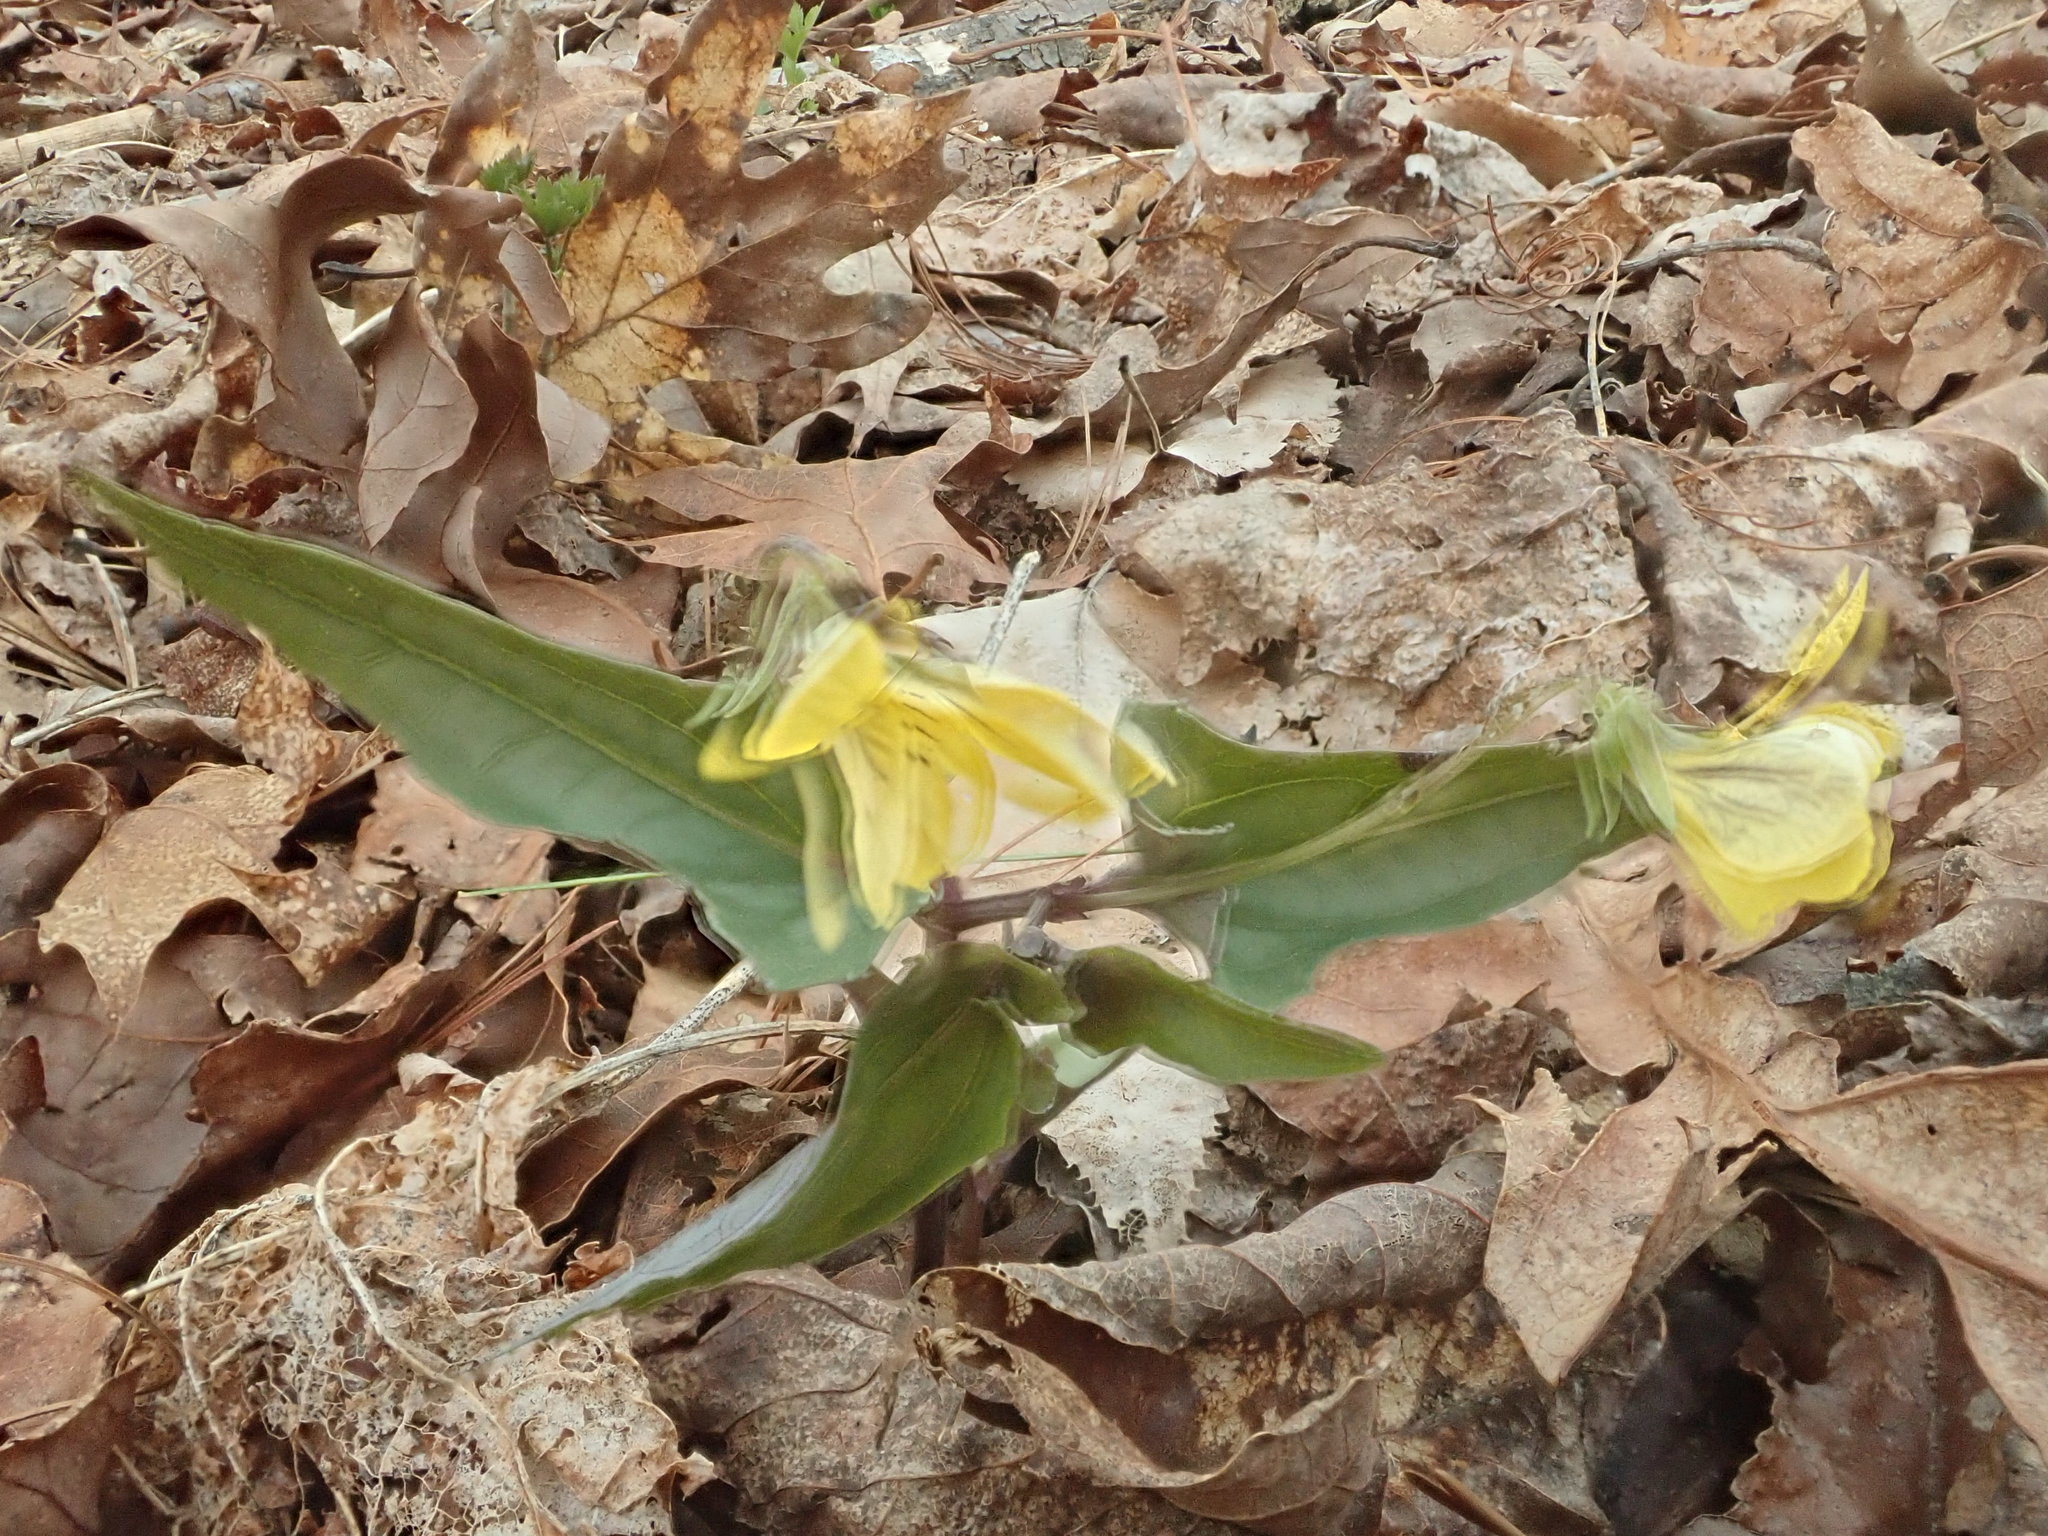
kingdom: Plantae
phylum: Tracheophyta
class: Magnoliopsida
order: Malpighiales
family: Violaceae
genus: Viola
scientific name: Viola hastata
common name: Spear-leaf violet
